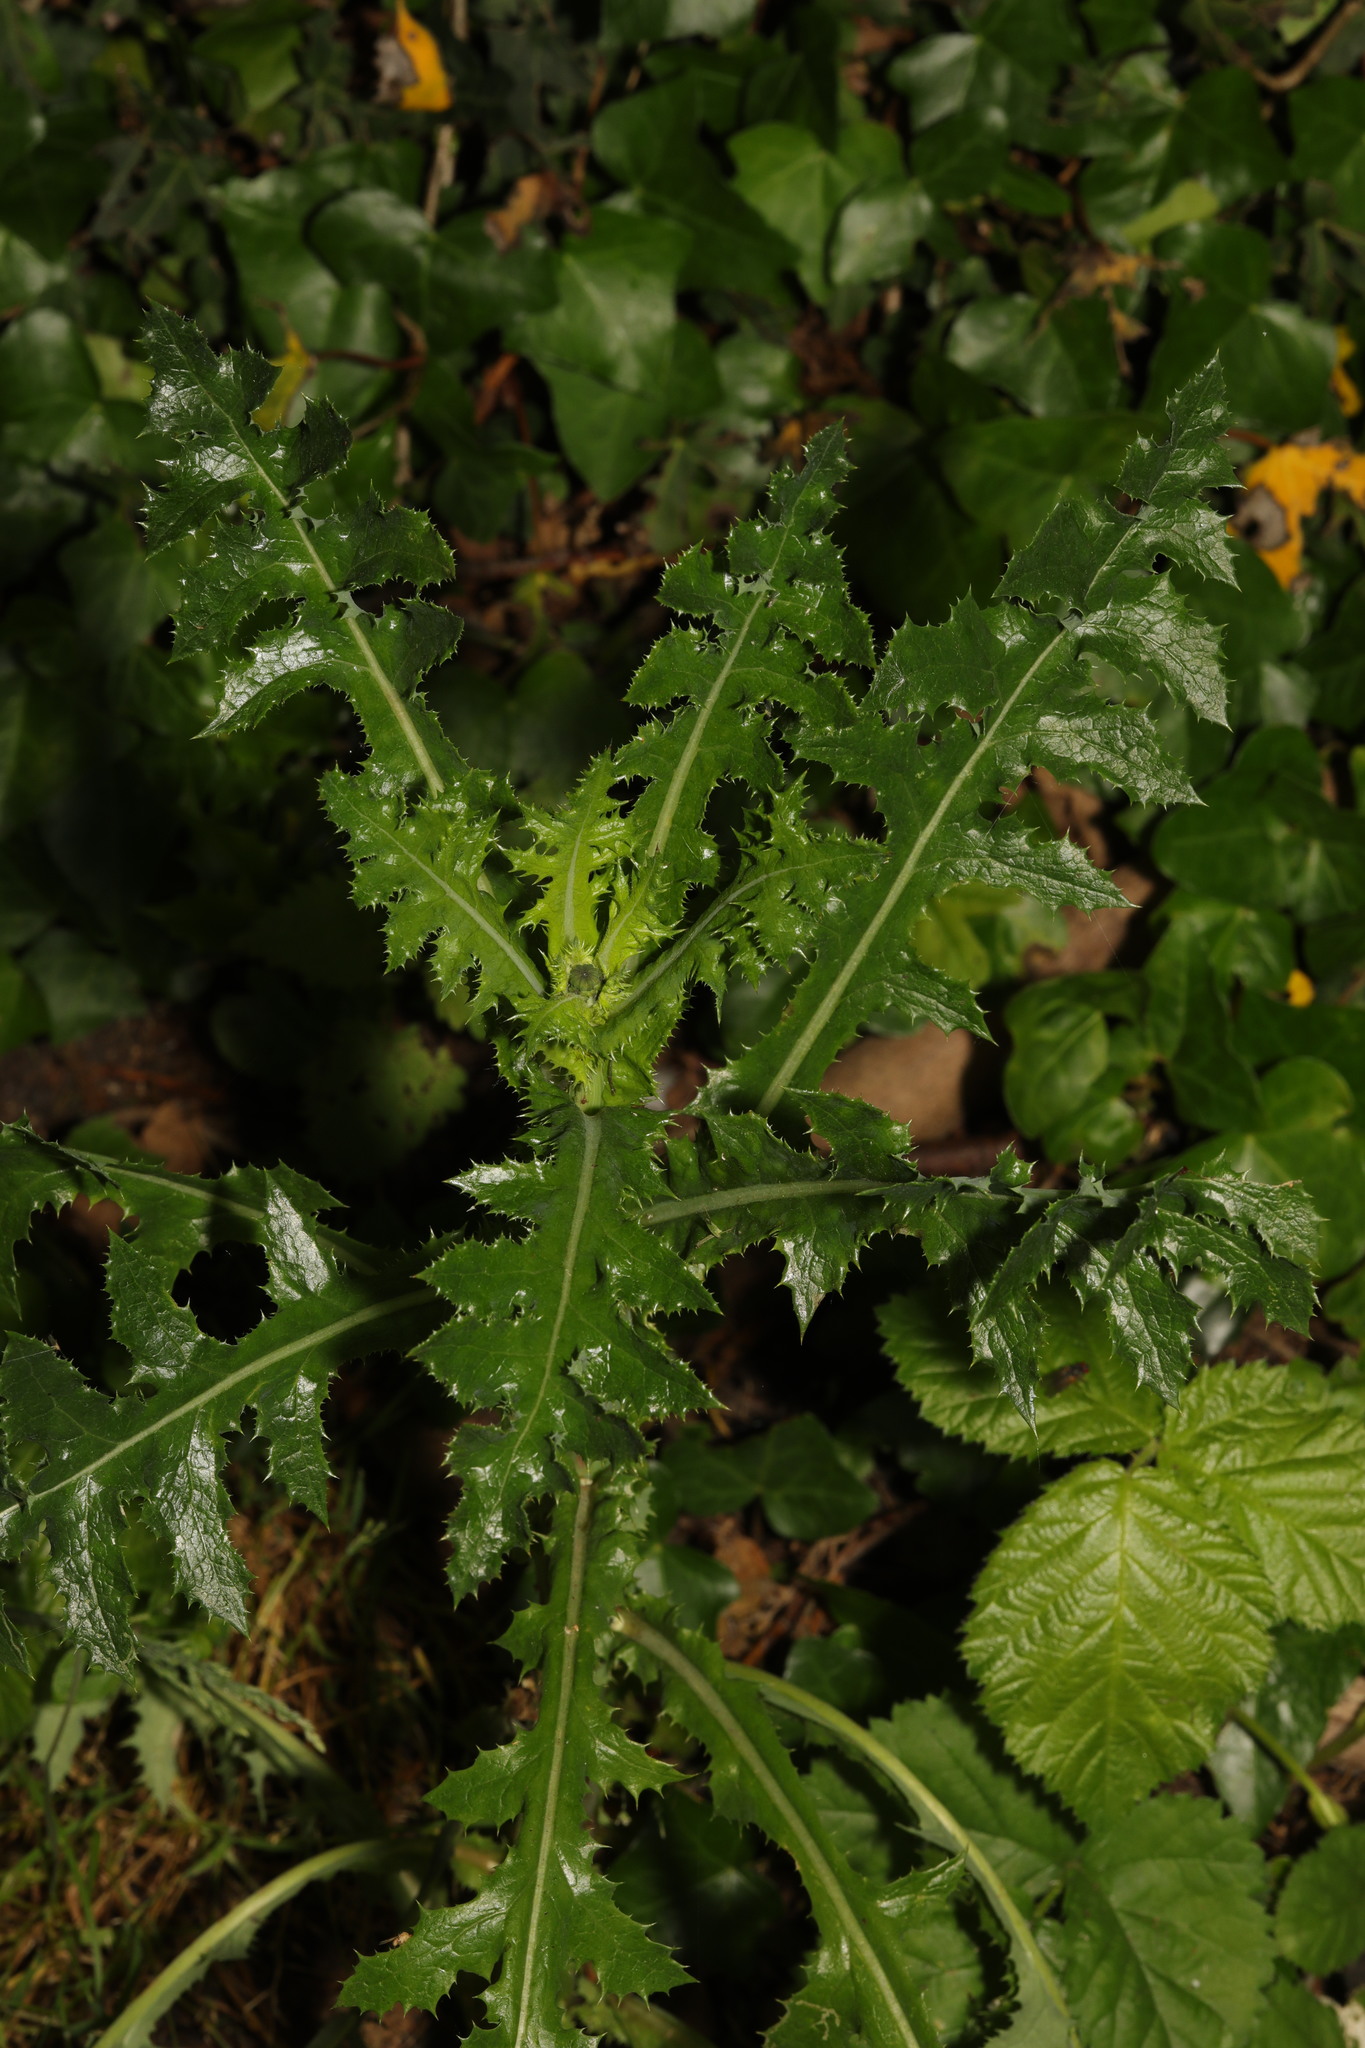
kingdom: Plantae
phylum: Tracheophyta
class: Magnoliopsida
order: Asterales
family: Asteraceae
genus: Sonchus
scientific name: Sonchus asper
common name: Prickly sow-thistle
